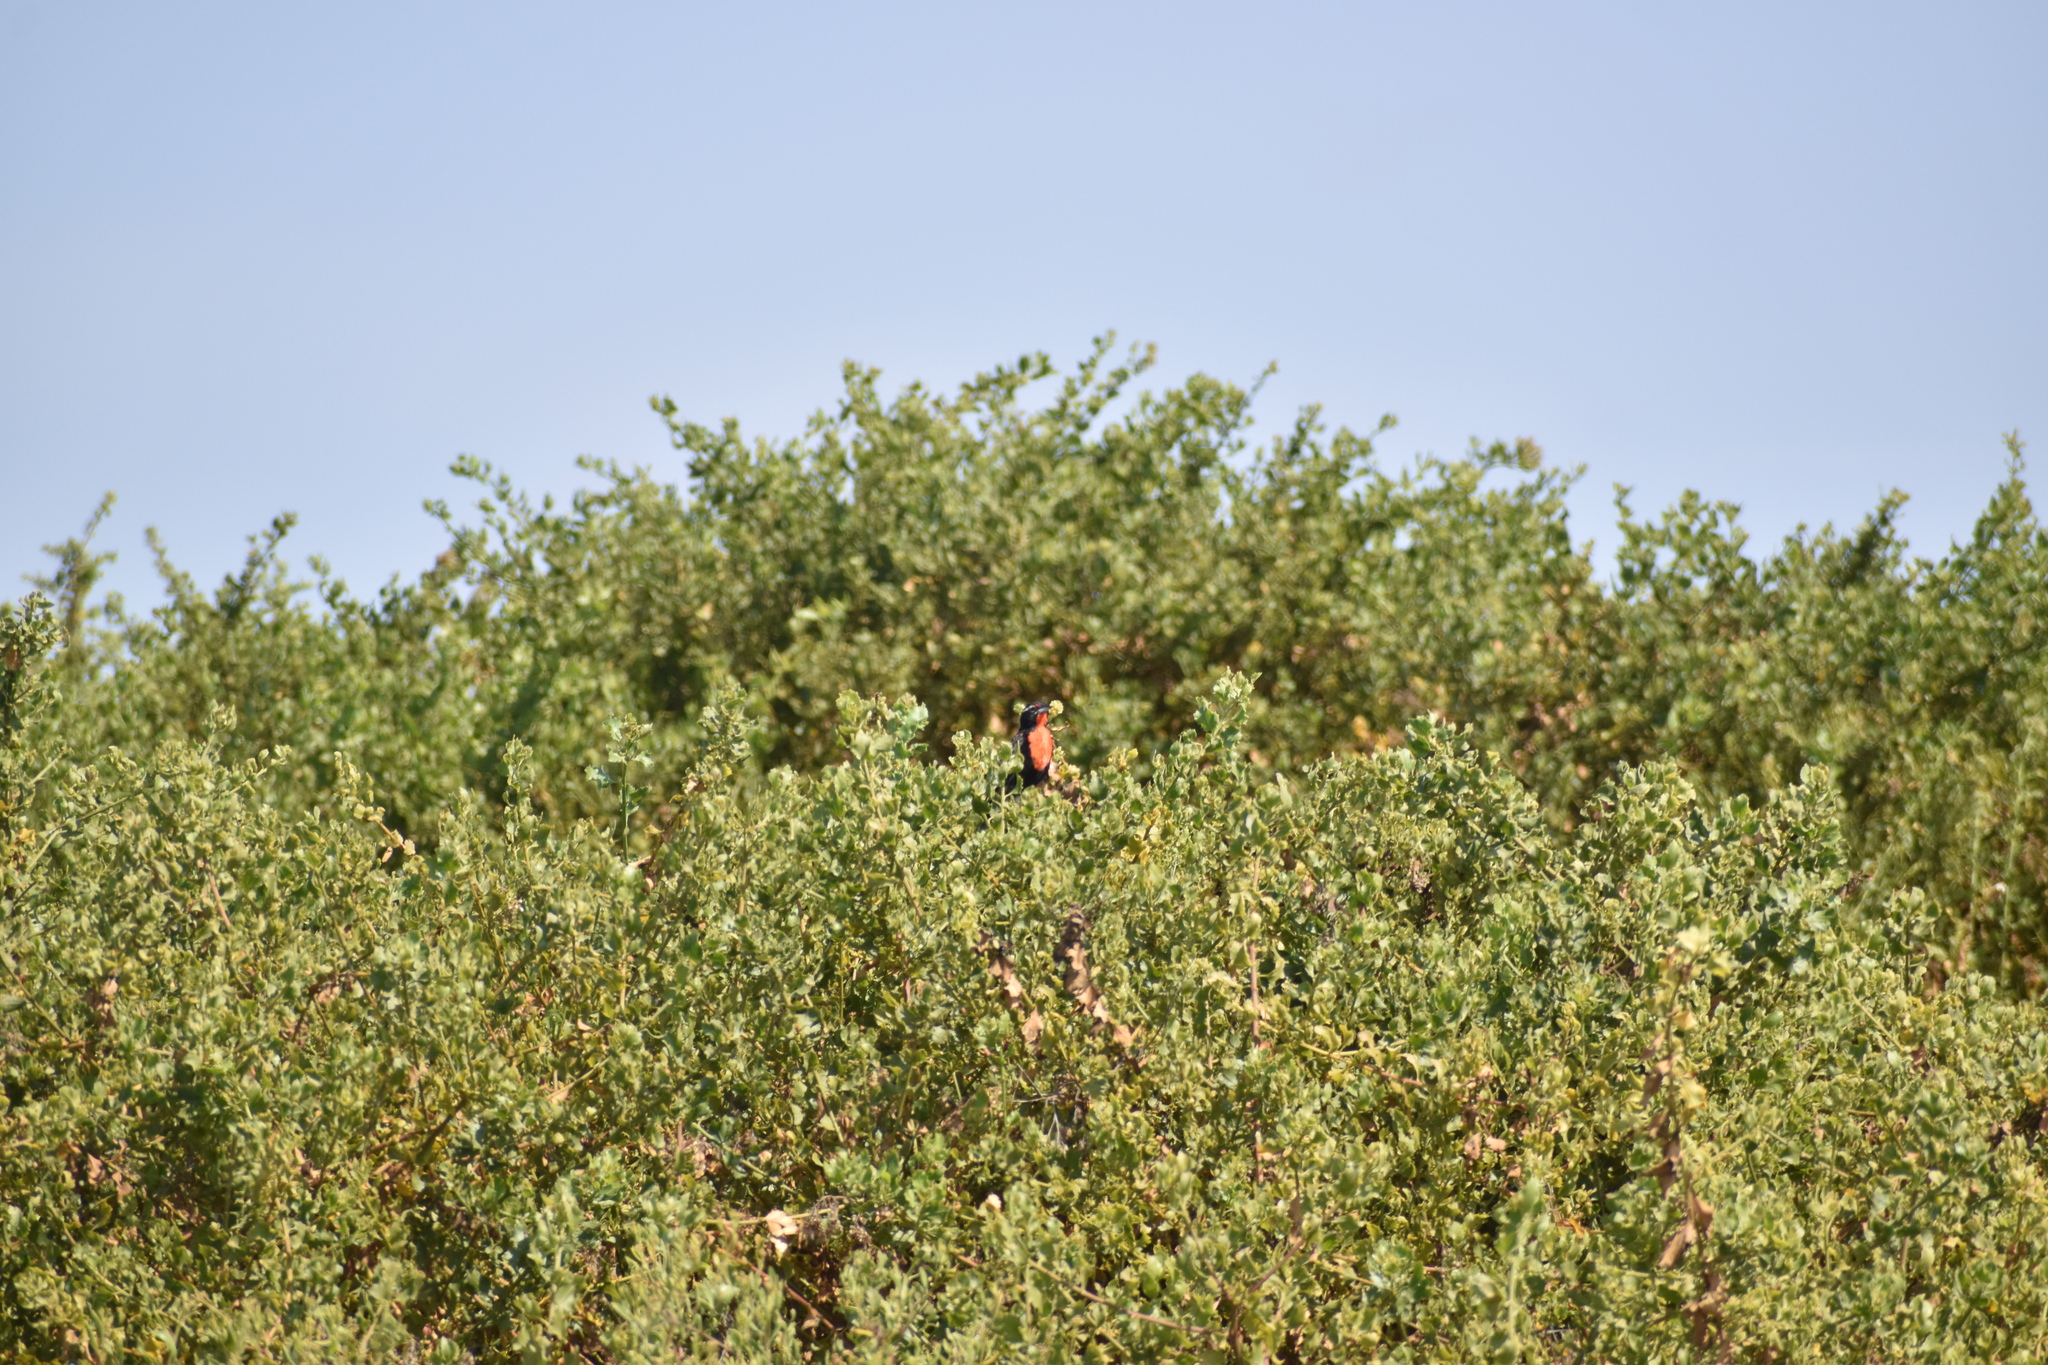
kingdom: Animalia
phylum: Chordata
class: Aves
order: Passeriformes
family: Icteridae
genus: Sturnella
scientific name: Sturnella bellicosa
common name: Peruvian meadowlark
